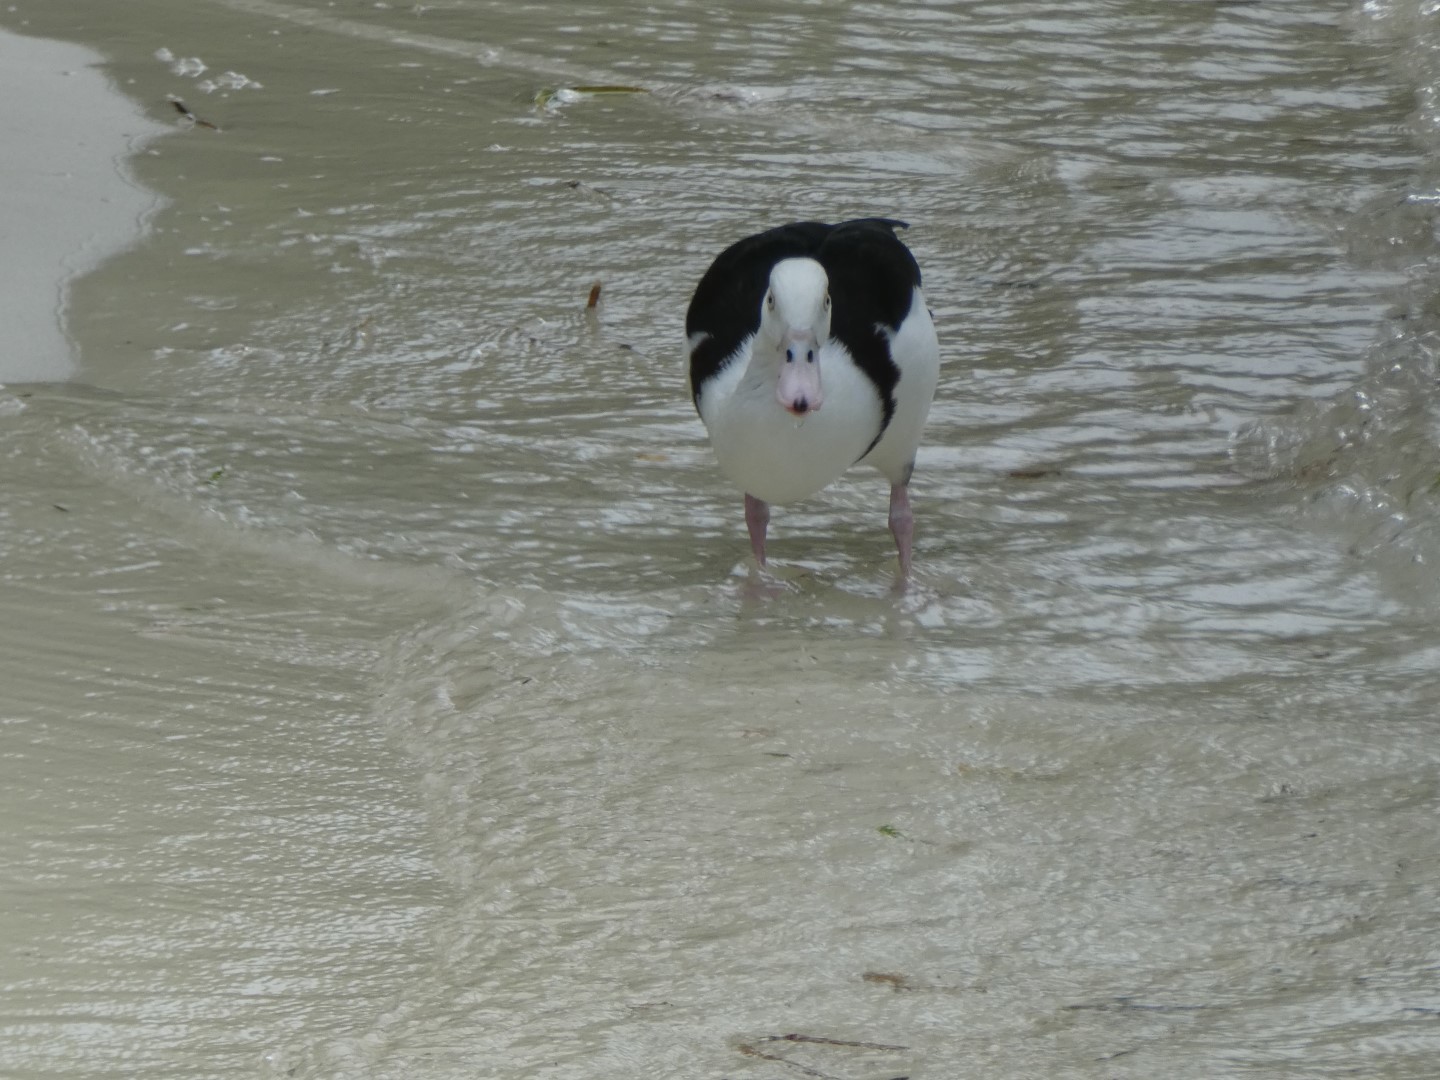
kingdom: Animalia
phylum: Chordata
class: Aves
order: Anseriformes
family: Anatidae
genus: Radjah
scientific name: Radjah radjah
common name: Radjah shelduck
